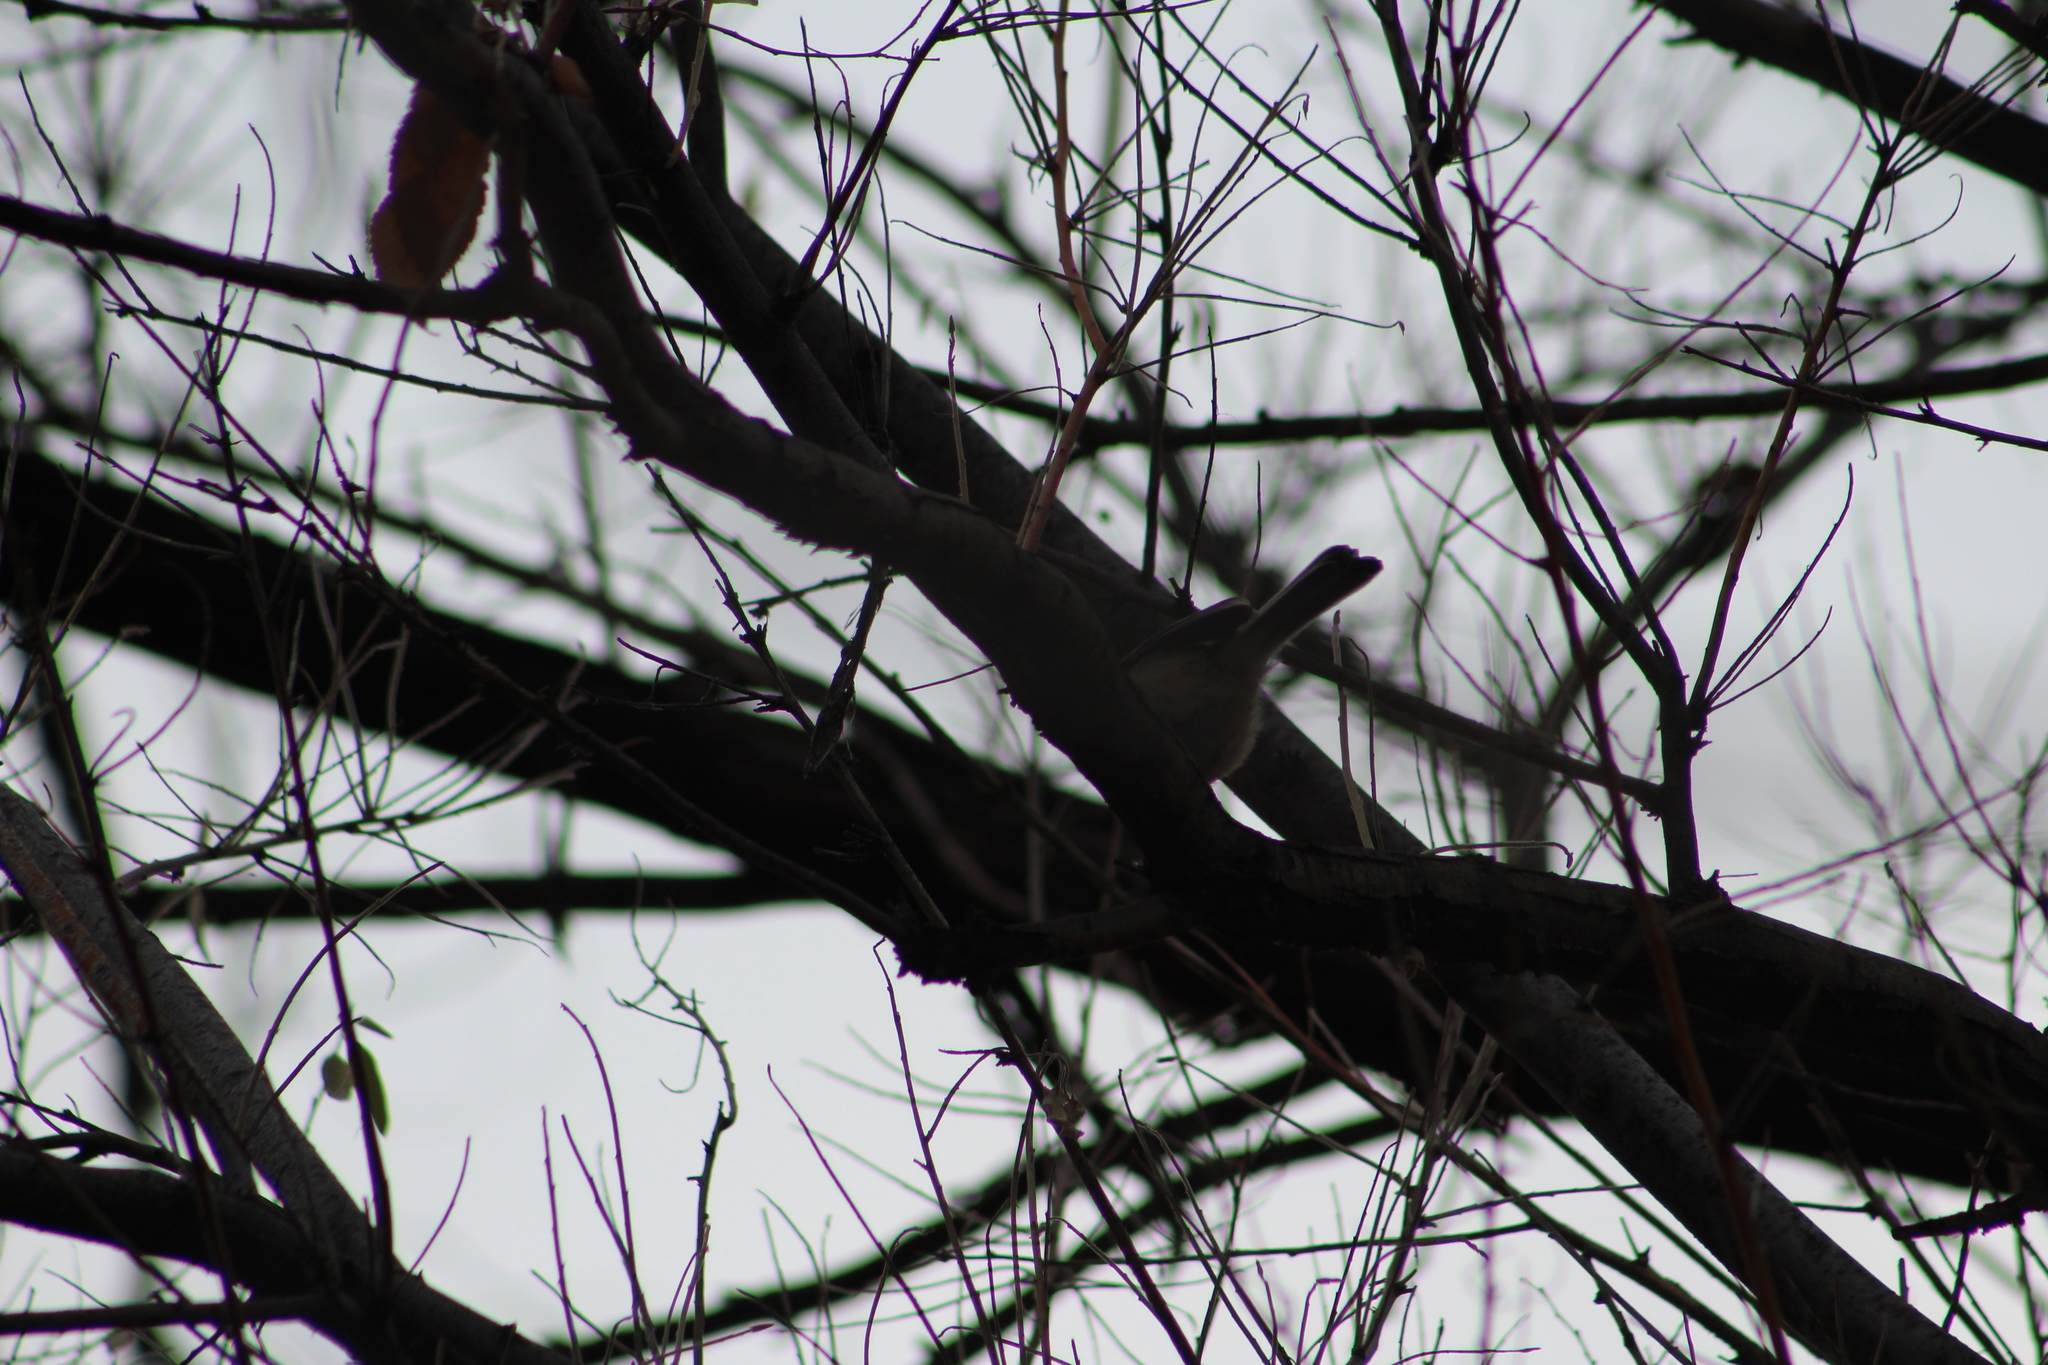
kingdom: Animalia
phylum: Chordata
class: Aves
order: Passeriformes
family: Paridae
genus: Poecile
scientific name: Poecile atricapillus
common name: Black-capped chickadee
